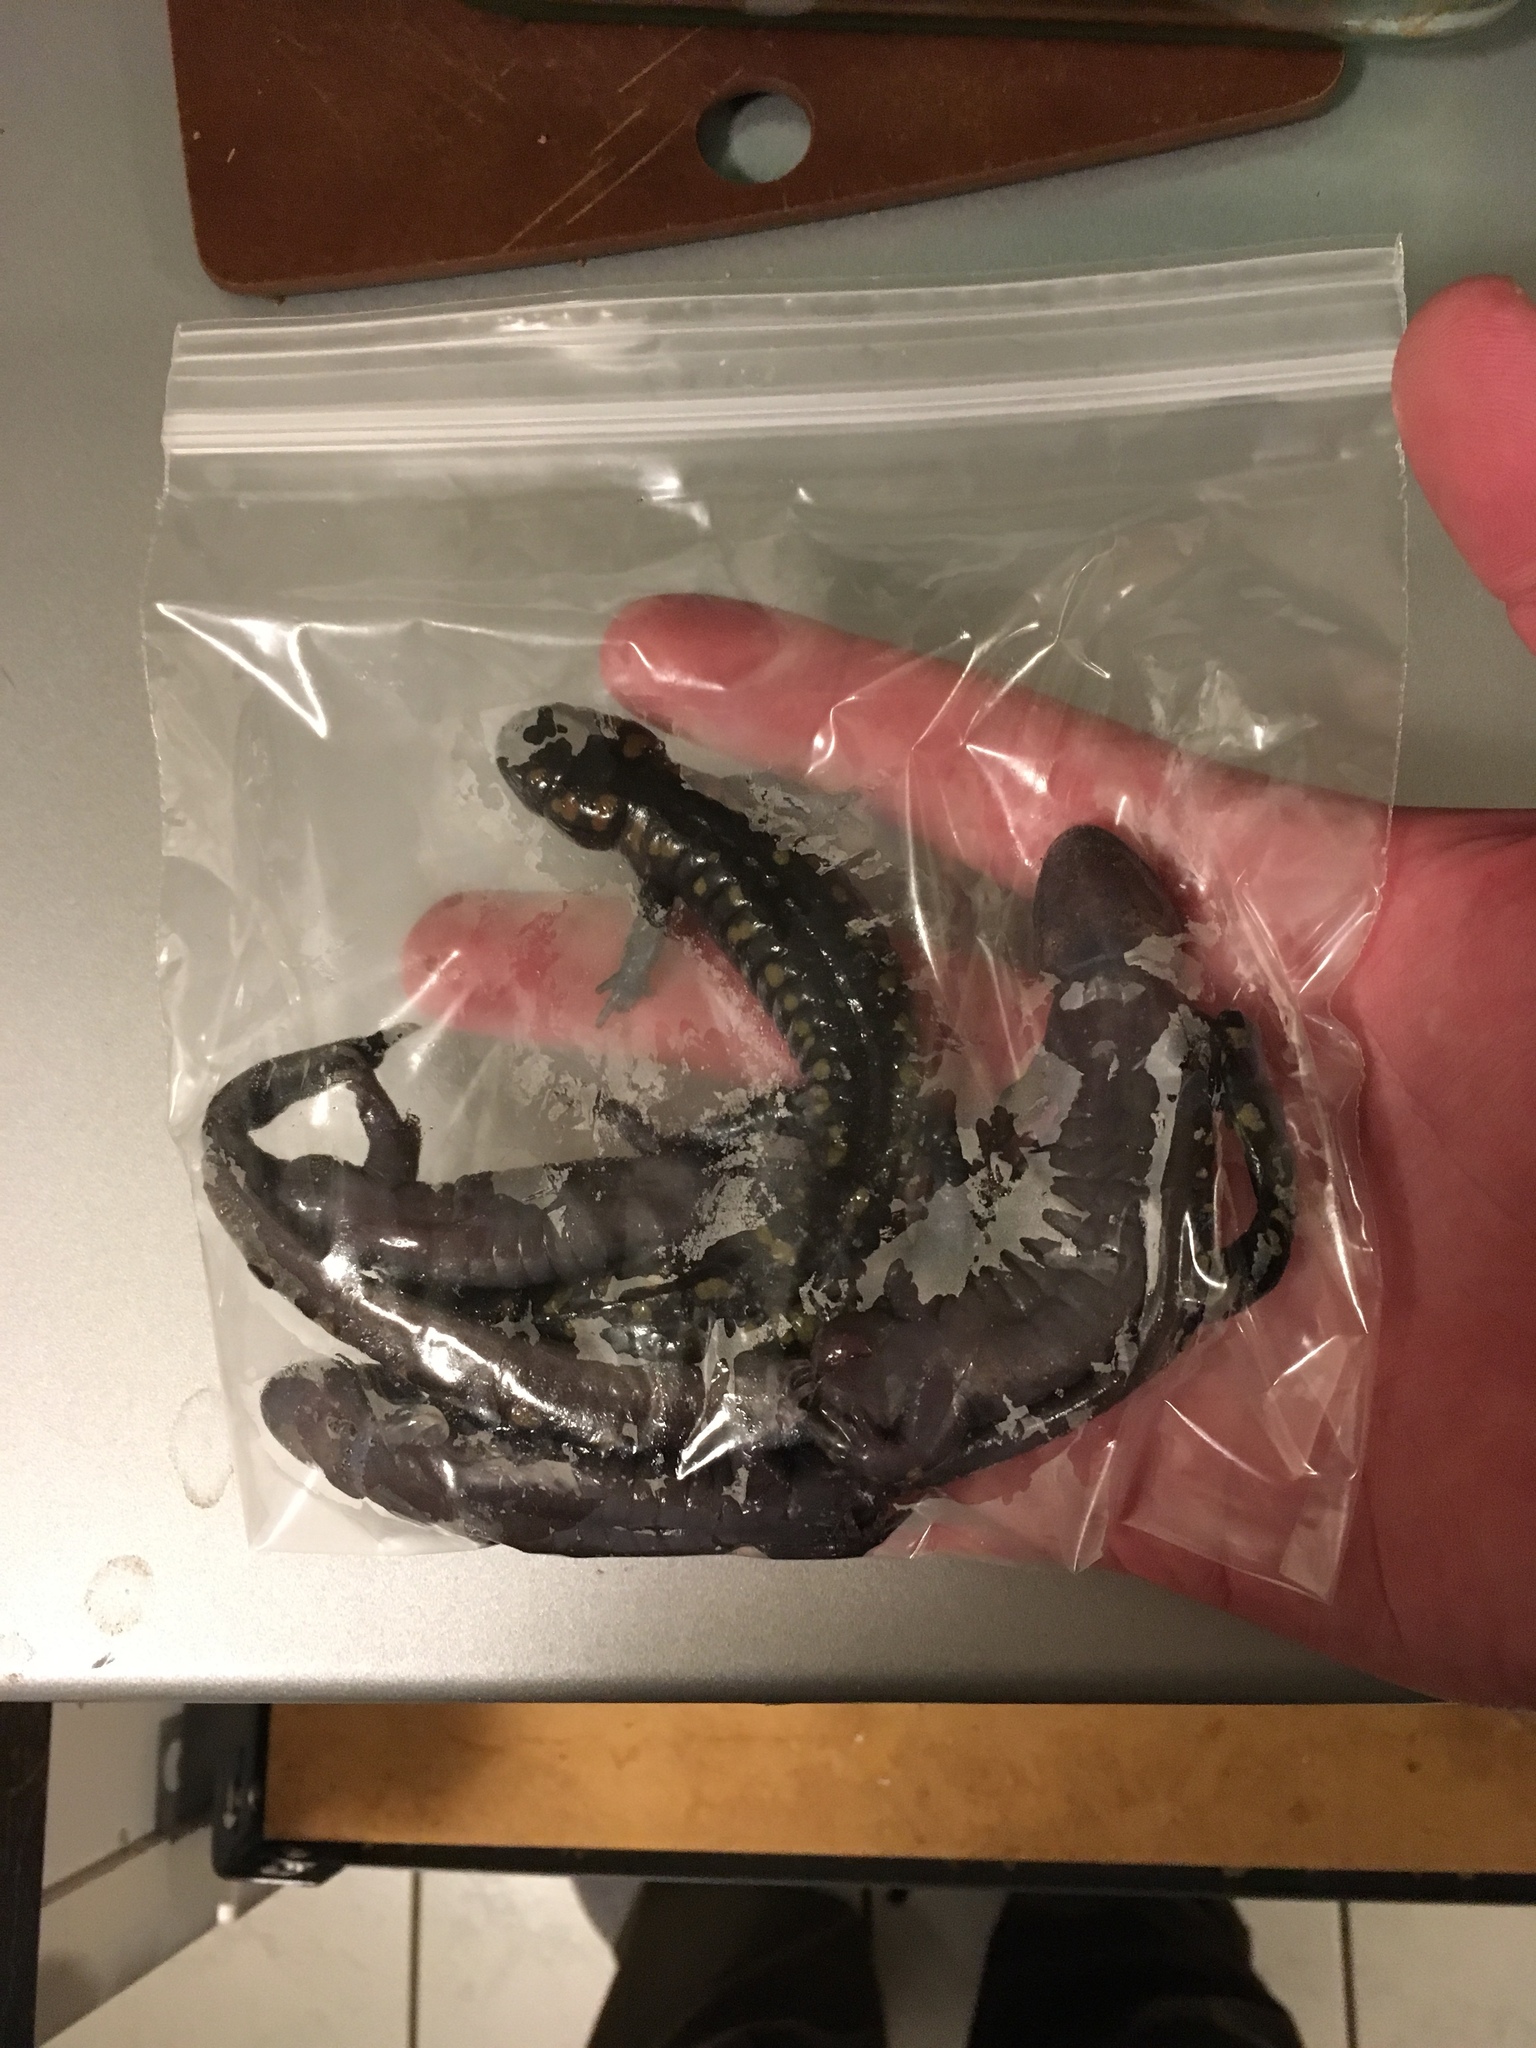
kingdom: Animalia
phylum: Chordata
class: Amphibia
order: Caudata
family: Ambystomatidae
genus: Ambystoma
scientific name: Ambystoma maculatum
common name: Spotted salamander
